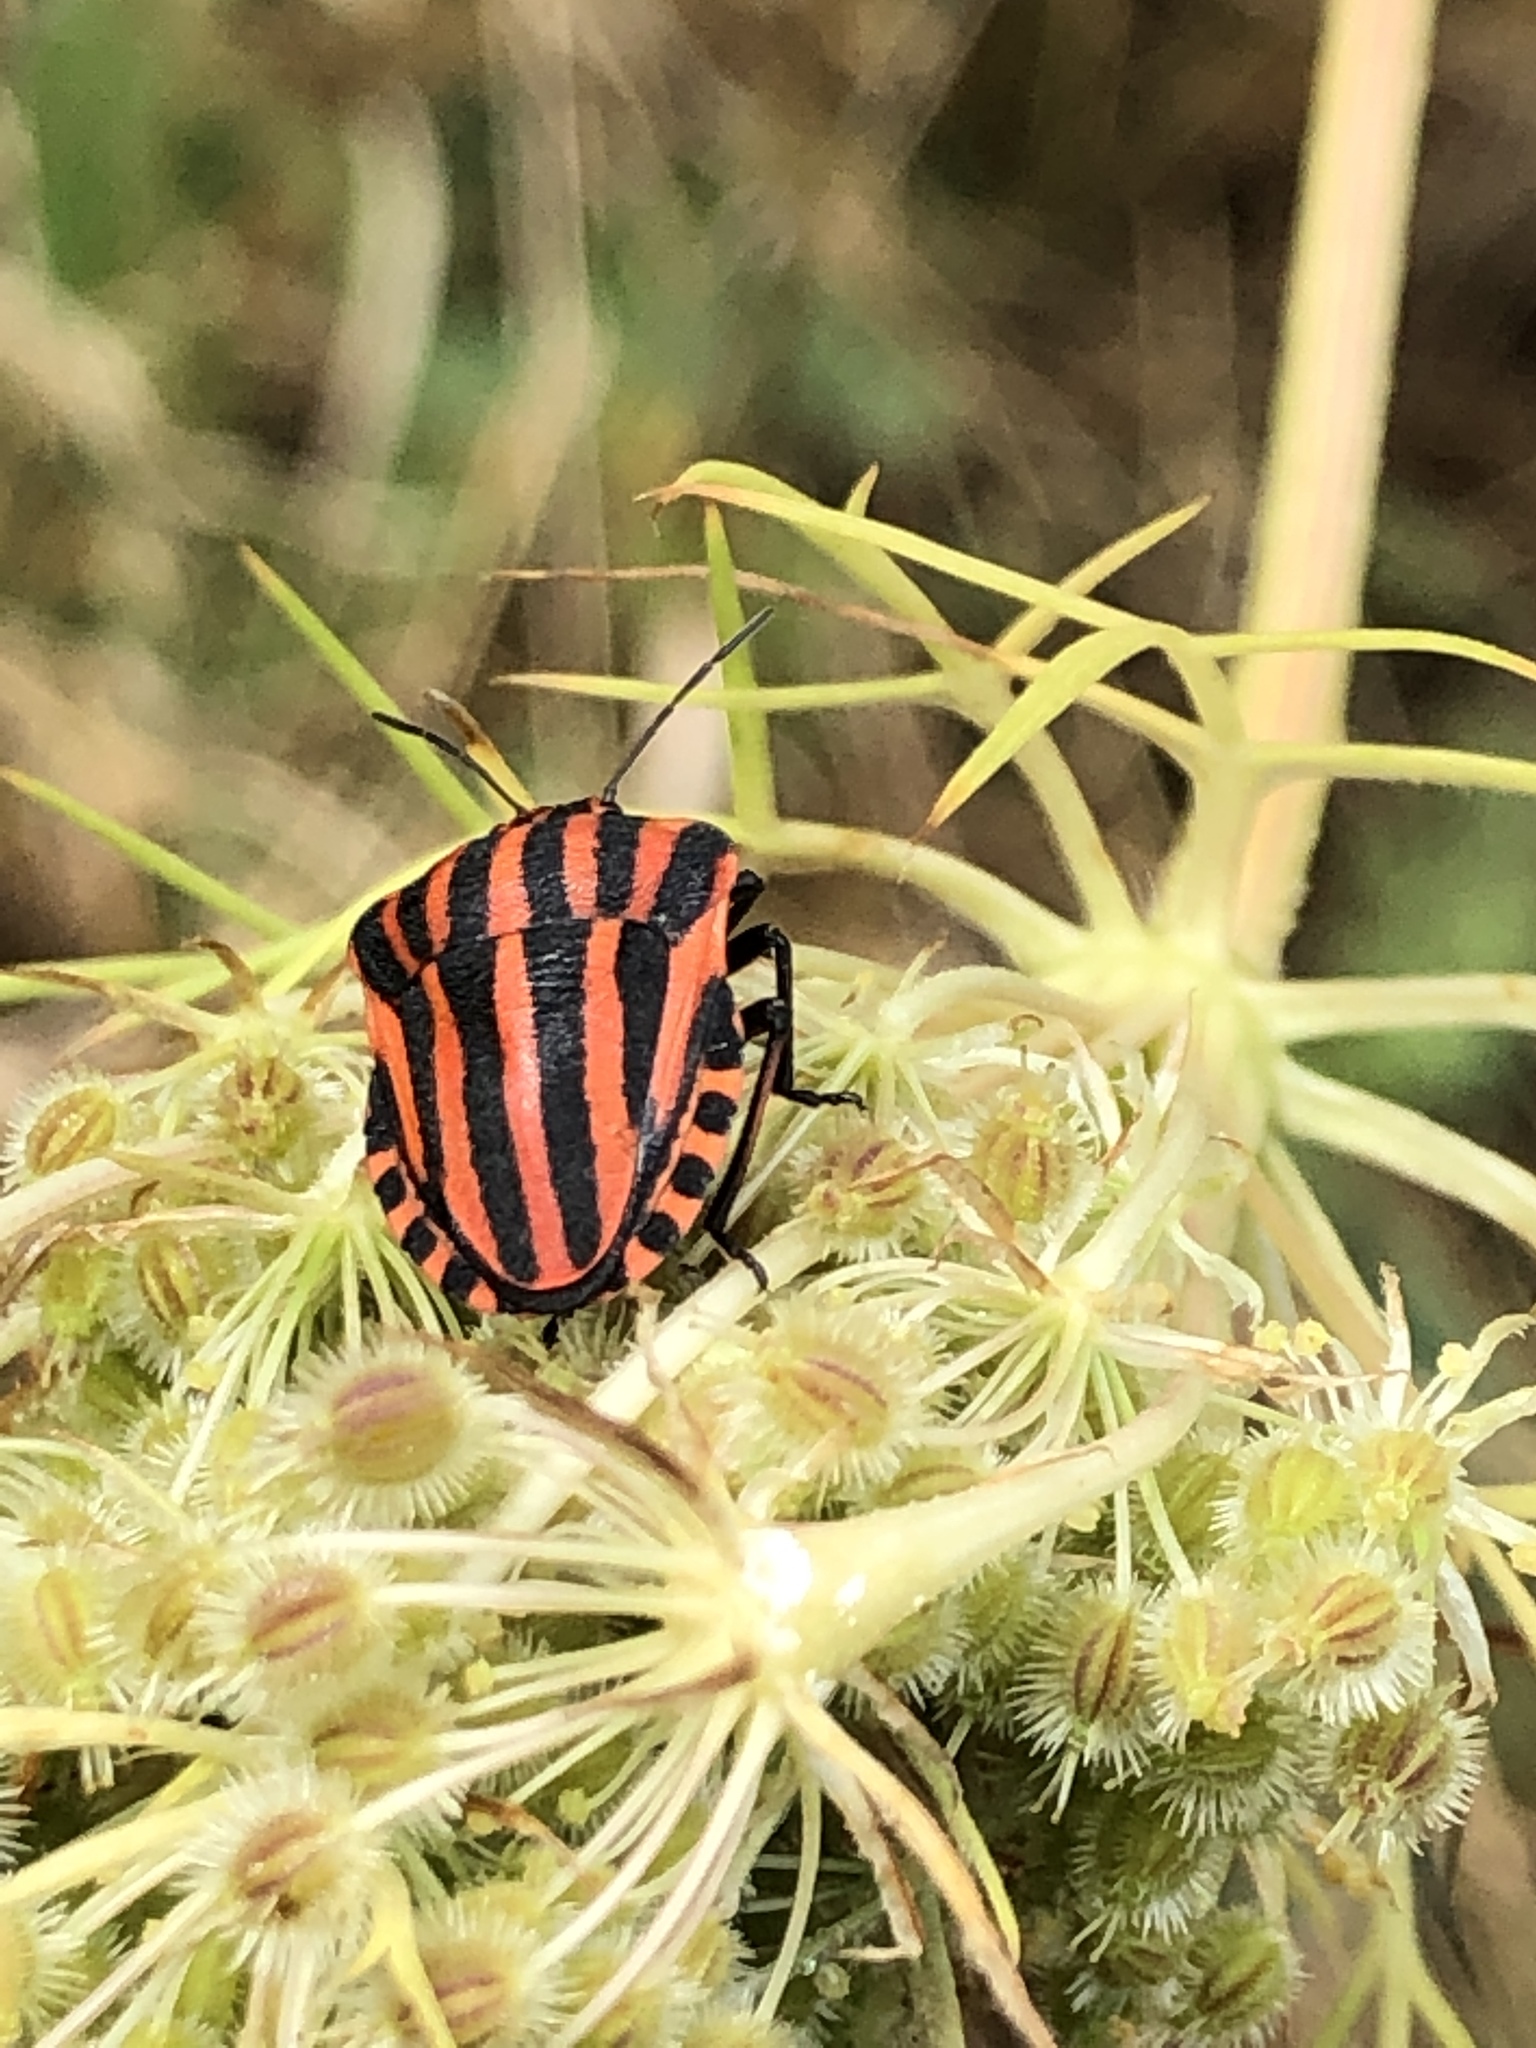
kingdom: Animalia
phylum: Arthropoda
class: Insecta
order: Hemiptera
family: Pentatomidae
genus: Graphosoma
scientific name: Graphosoma italicum
